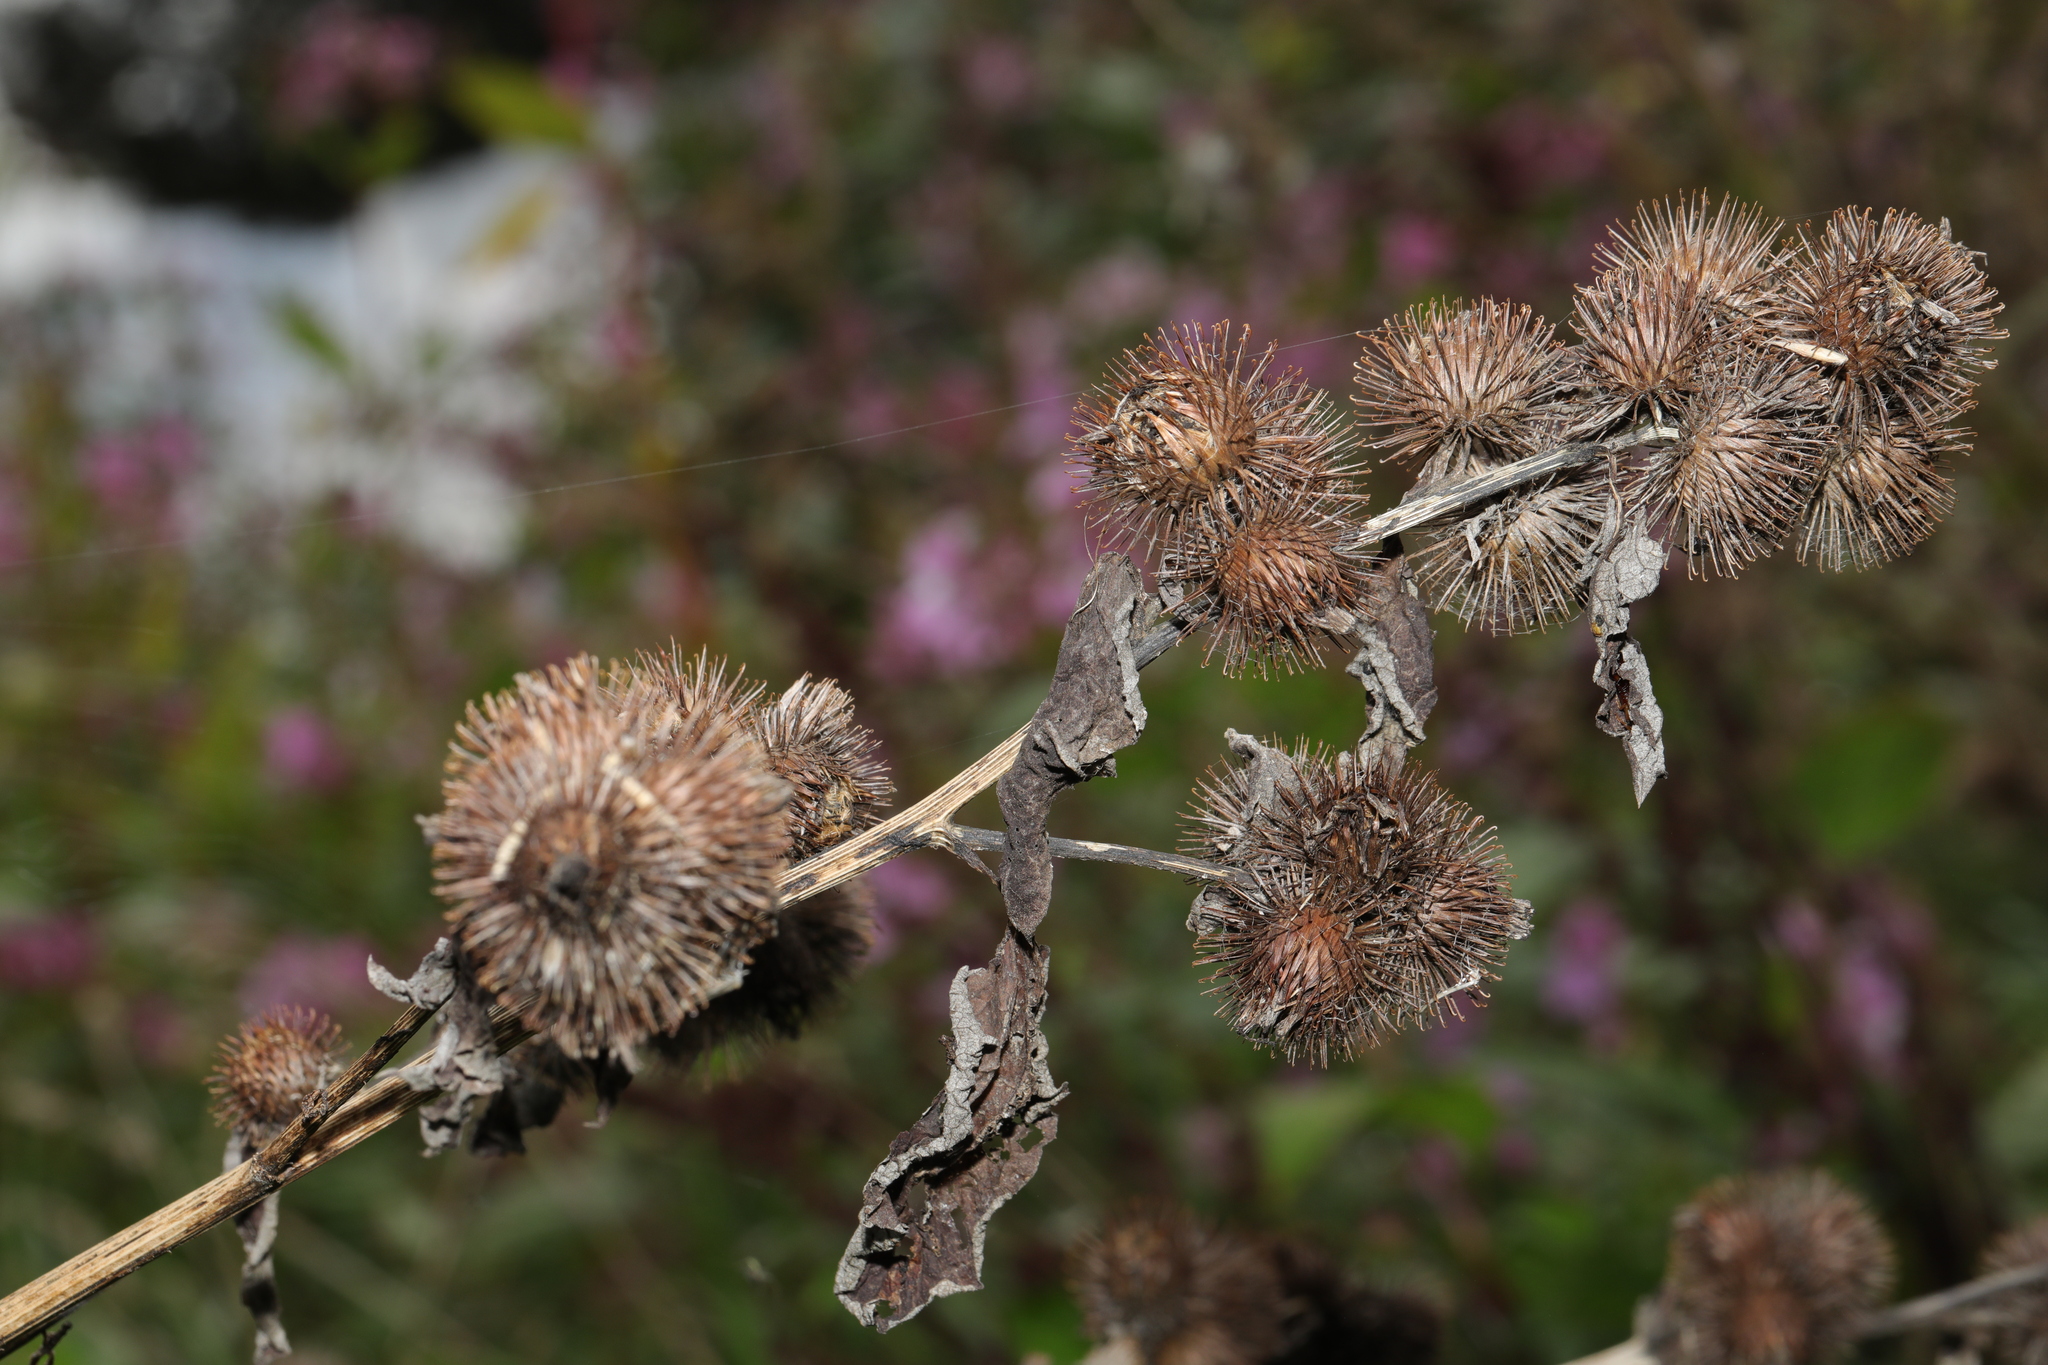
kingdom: Plantae
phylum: Tracheophyta
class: Magnoliopsida
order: Asterales
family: Asteraceae
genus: Arctium
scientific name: Arctium minus
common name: Lesser burdock
